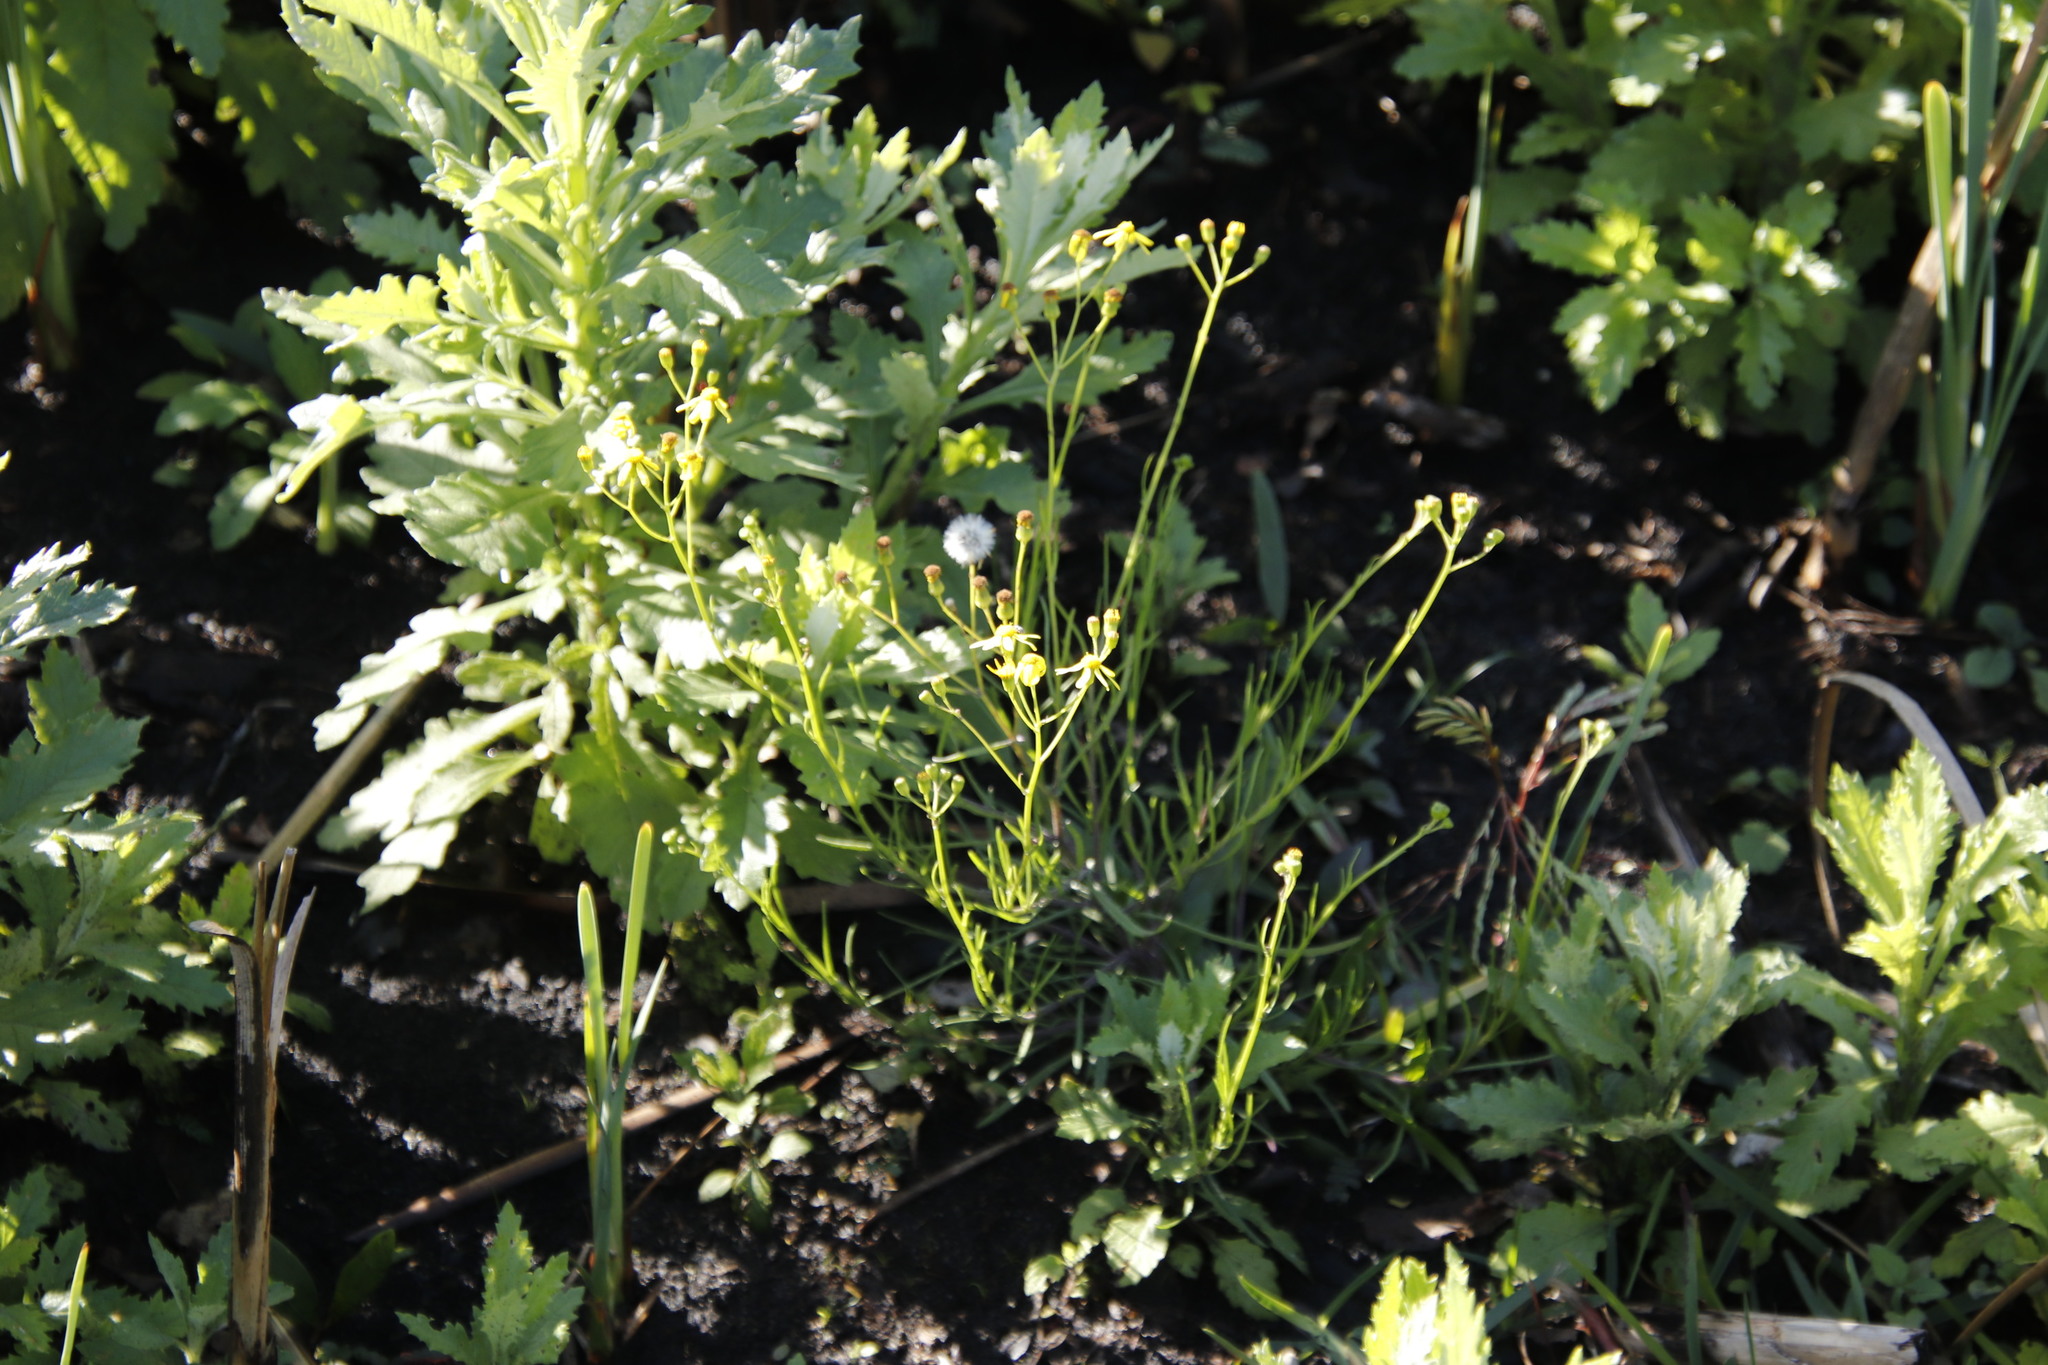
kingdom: Plantae
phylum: Tracheophyta
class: Magnoliopsida
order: Asterales
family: Asteraceae
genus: Senecio
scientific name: Senecio burchellii
